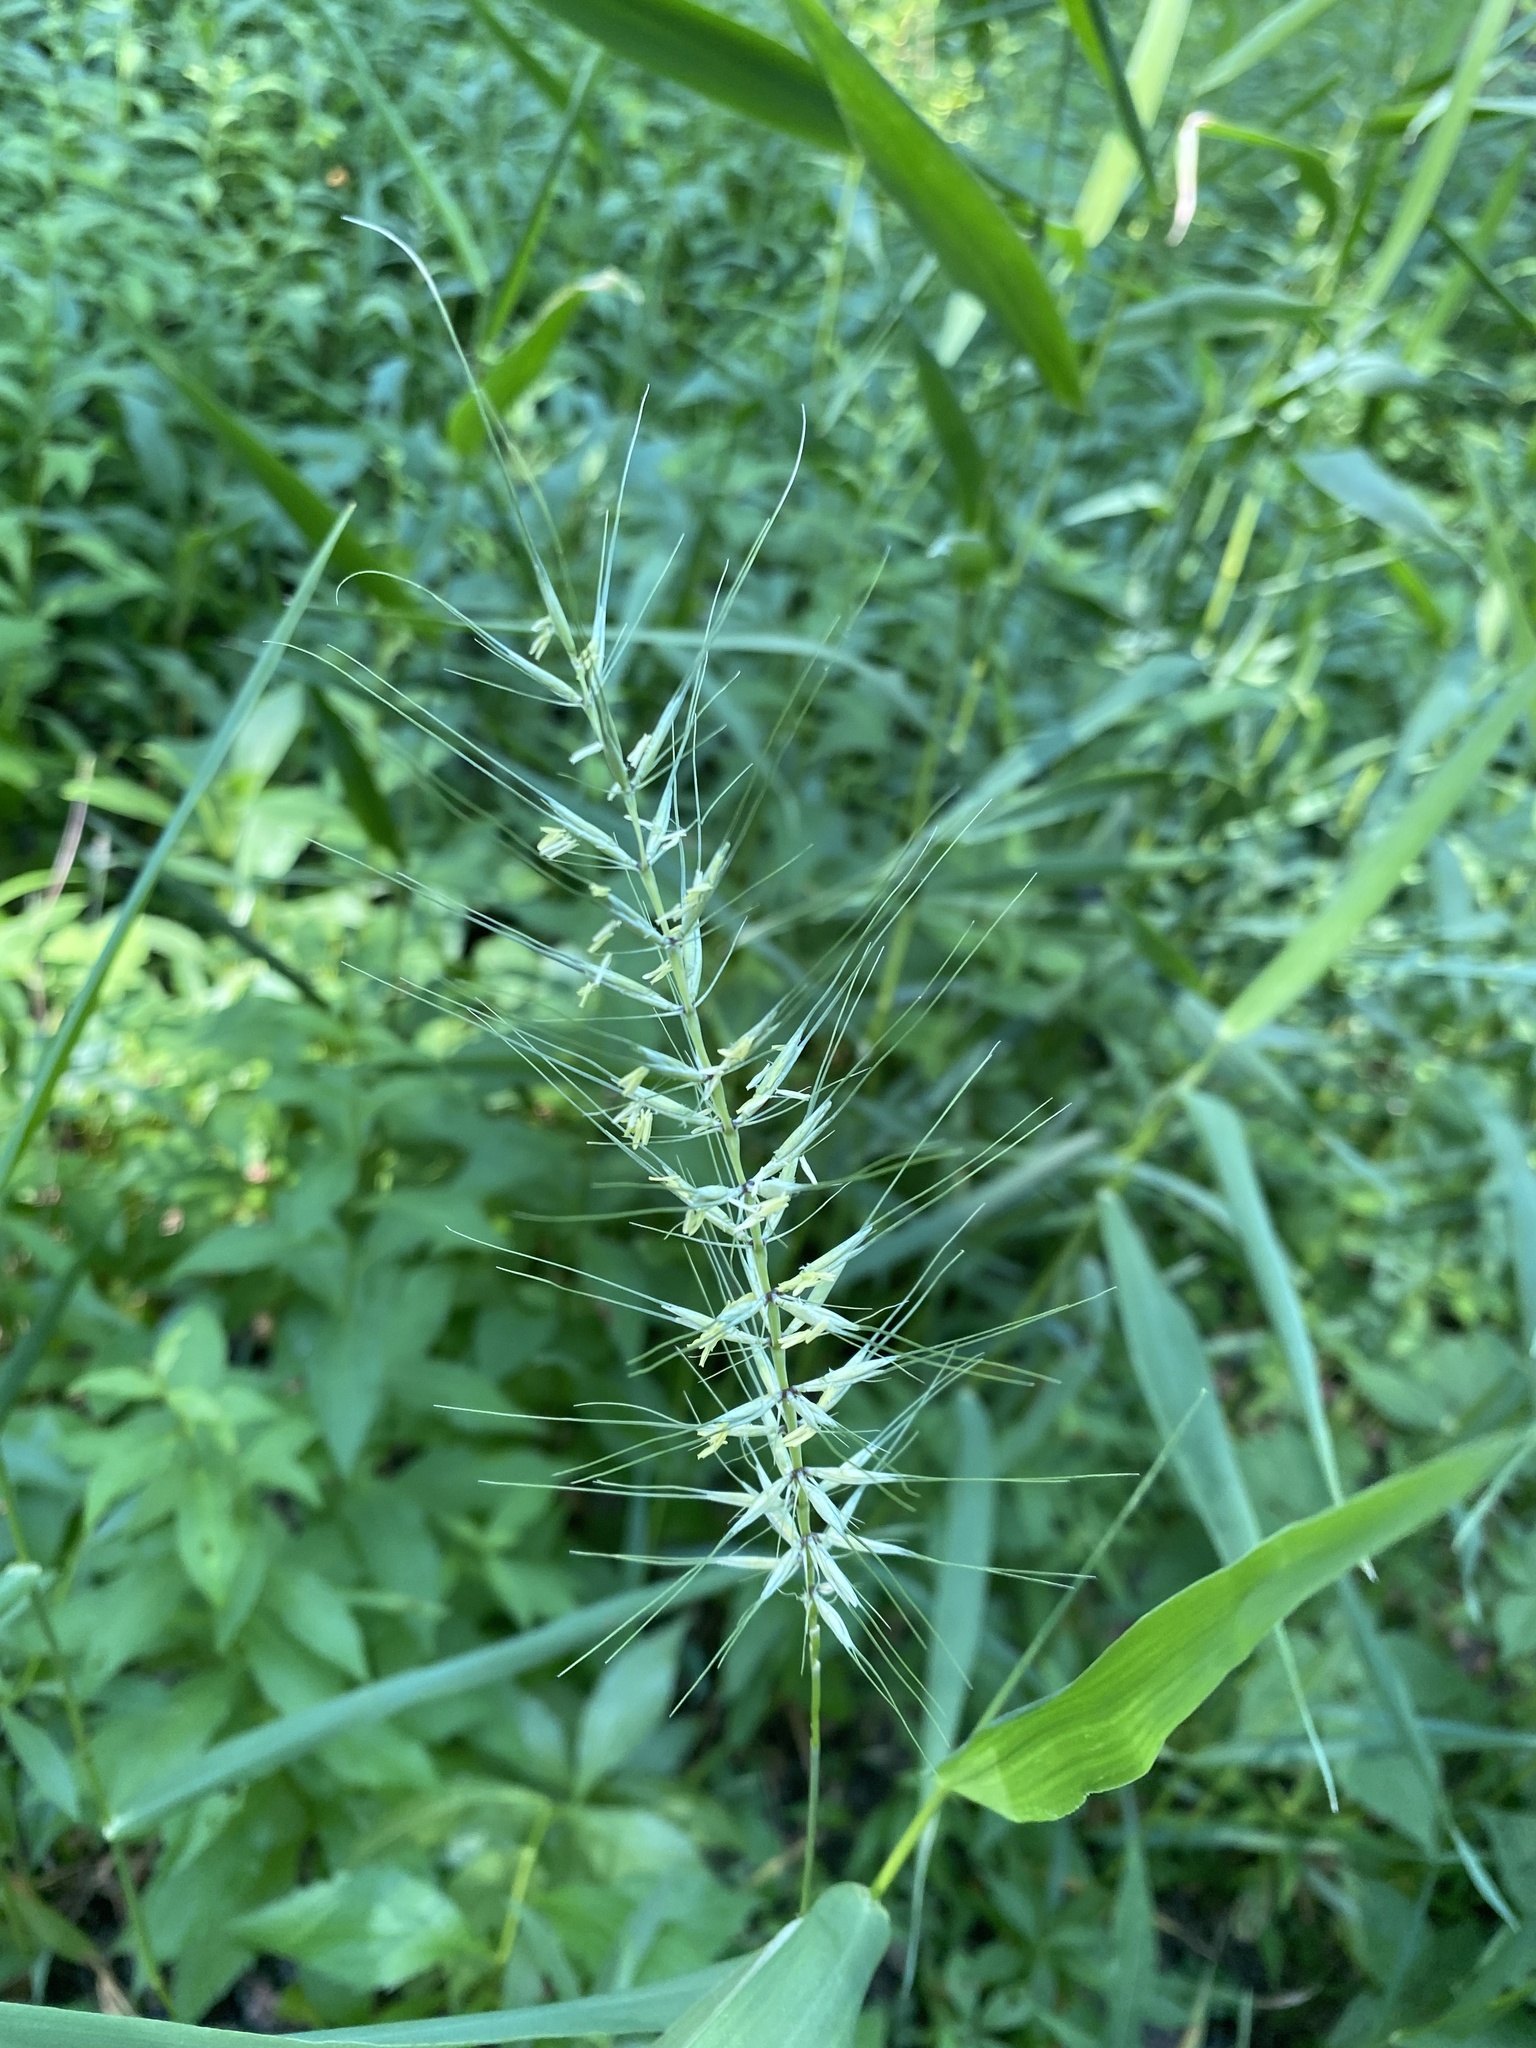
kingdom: Plantae
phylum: Tracheophyta
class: Liliopsida
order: Poales
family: Poaceae
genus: Elymus
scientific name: Elymus hystrix
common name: Bottlebrush grass
